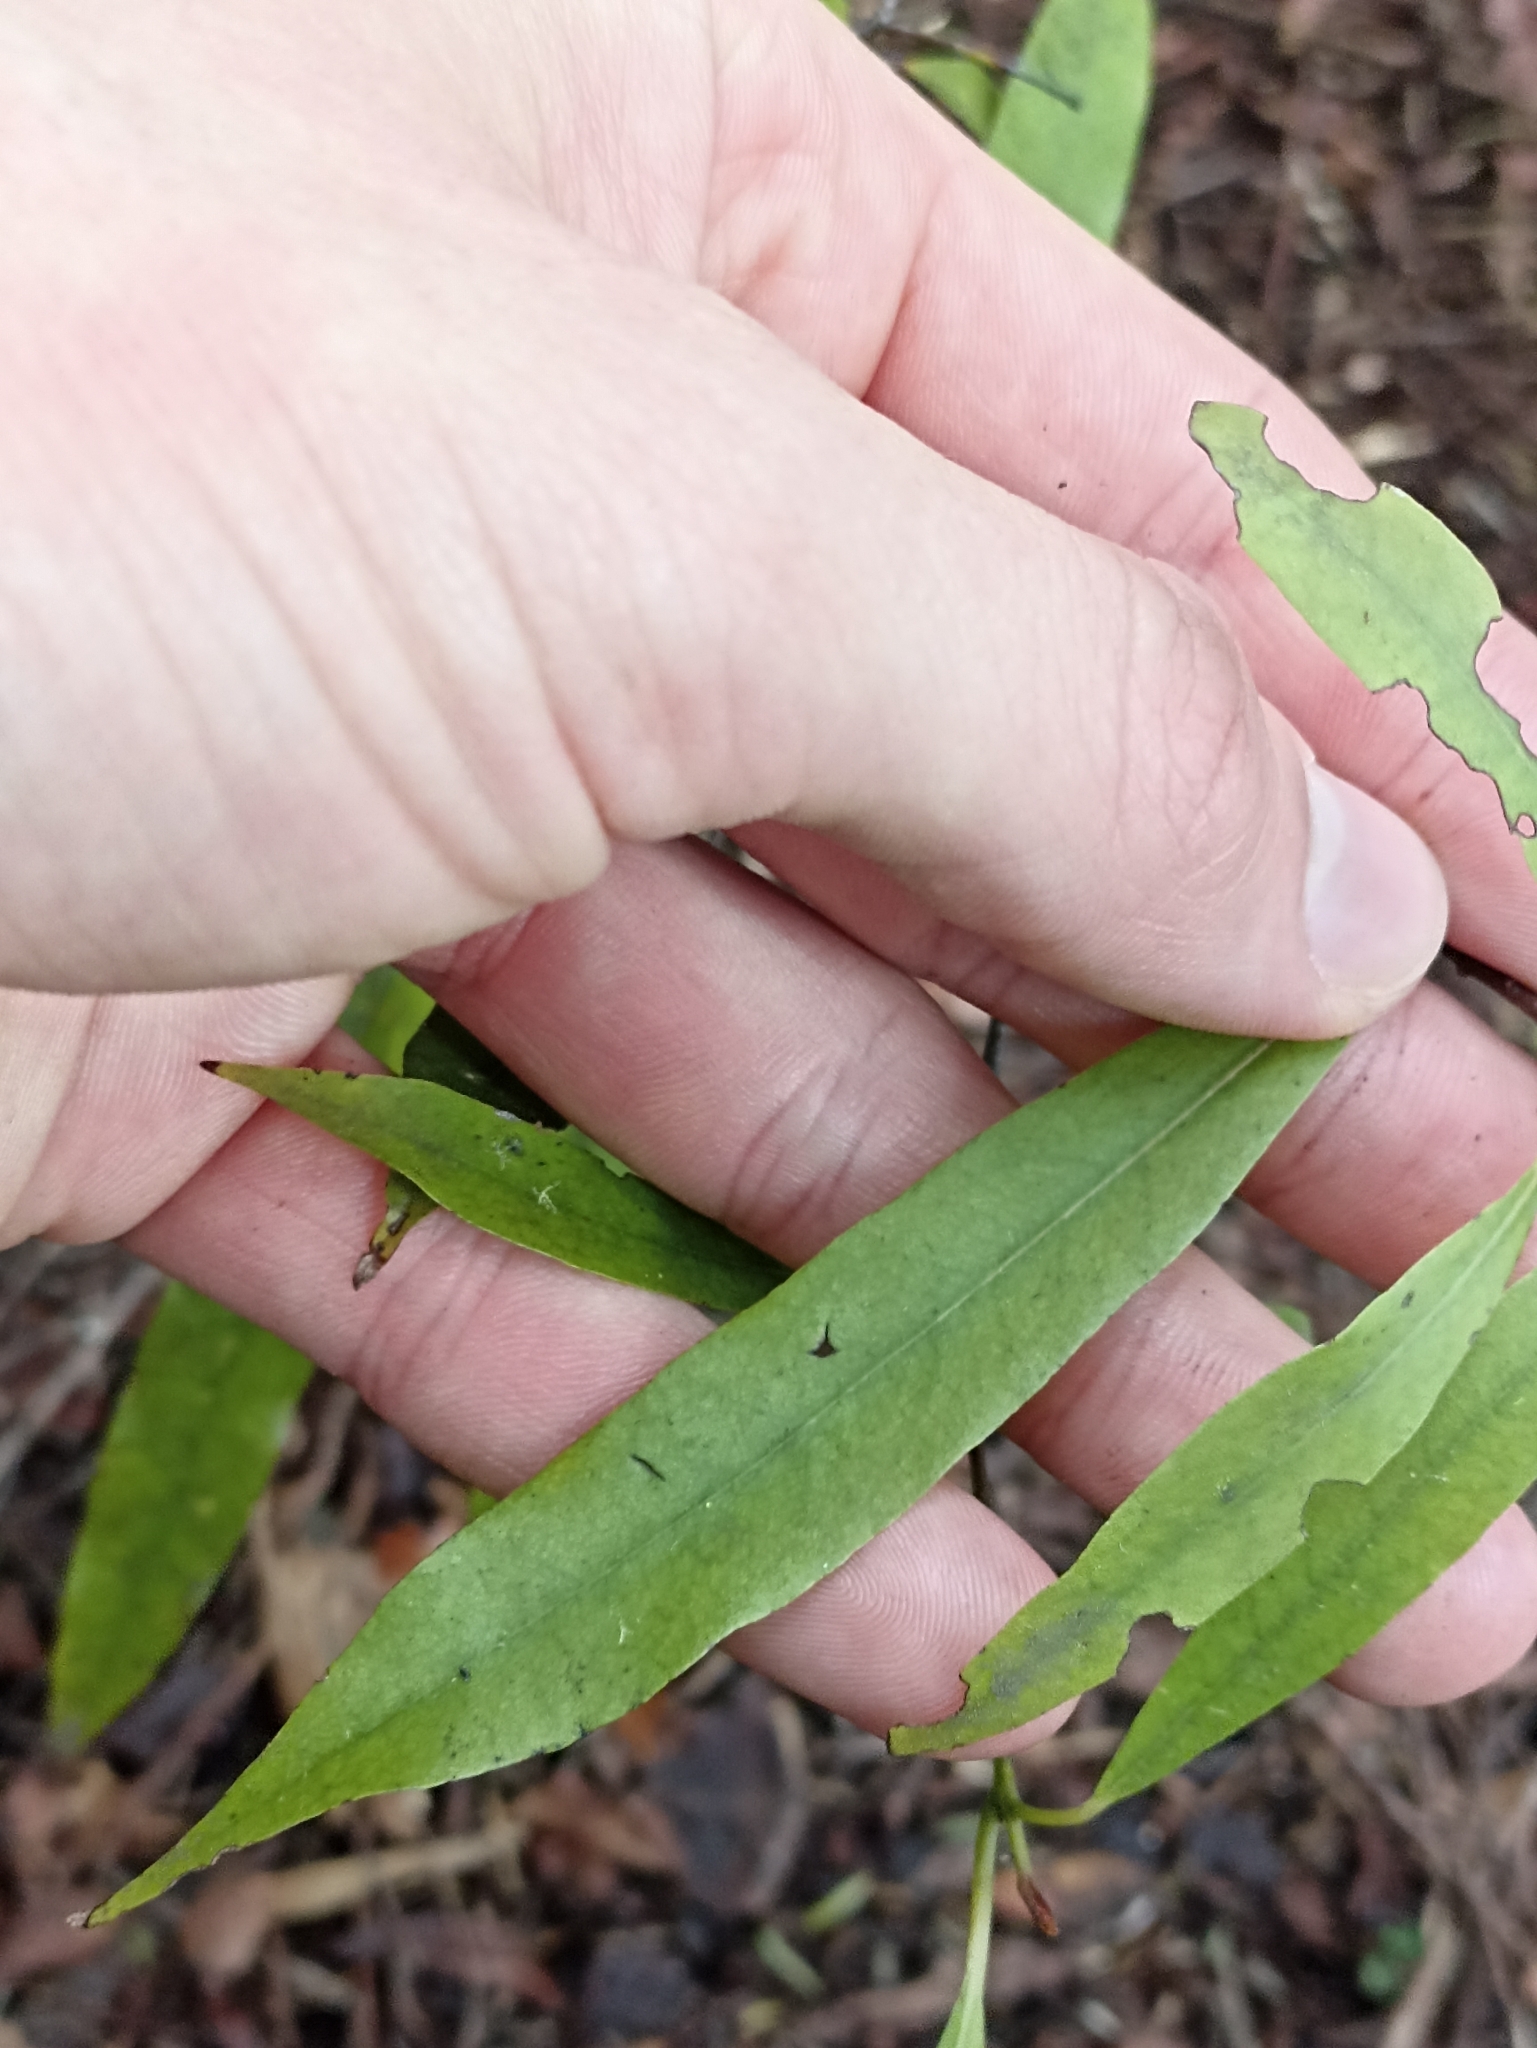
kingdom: Plantae
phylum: Tracheophyta
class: Magnoliopsida
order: Laurales
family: Lauraceae
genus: Beilschmiedia
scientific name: Beilschmiedia tawa
